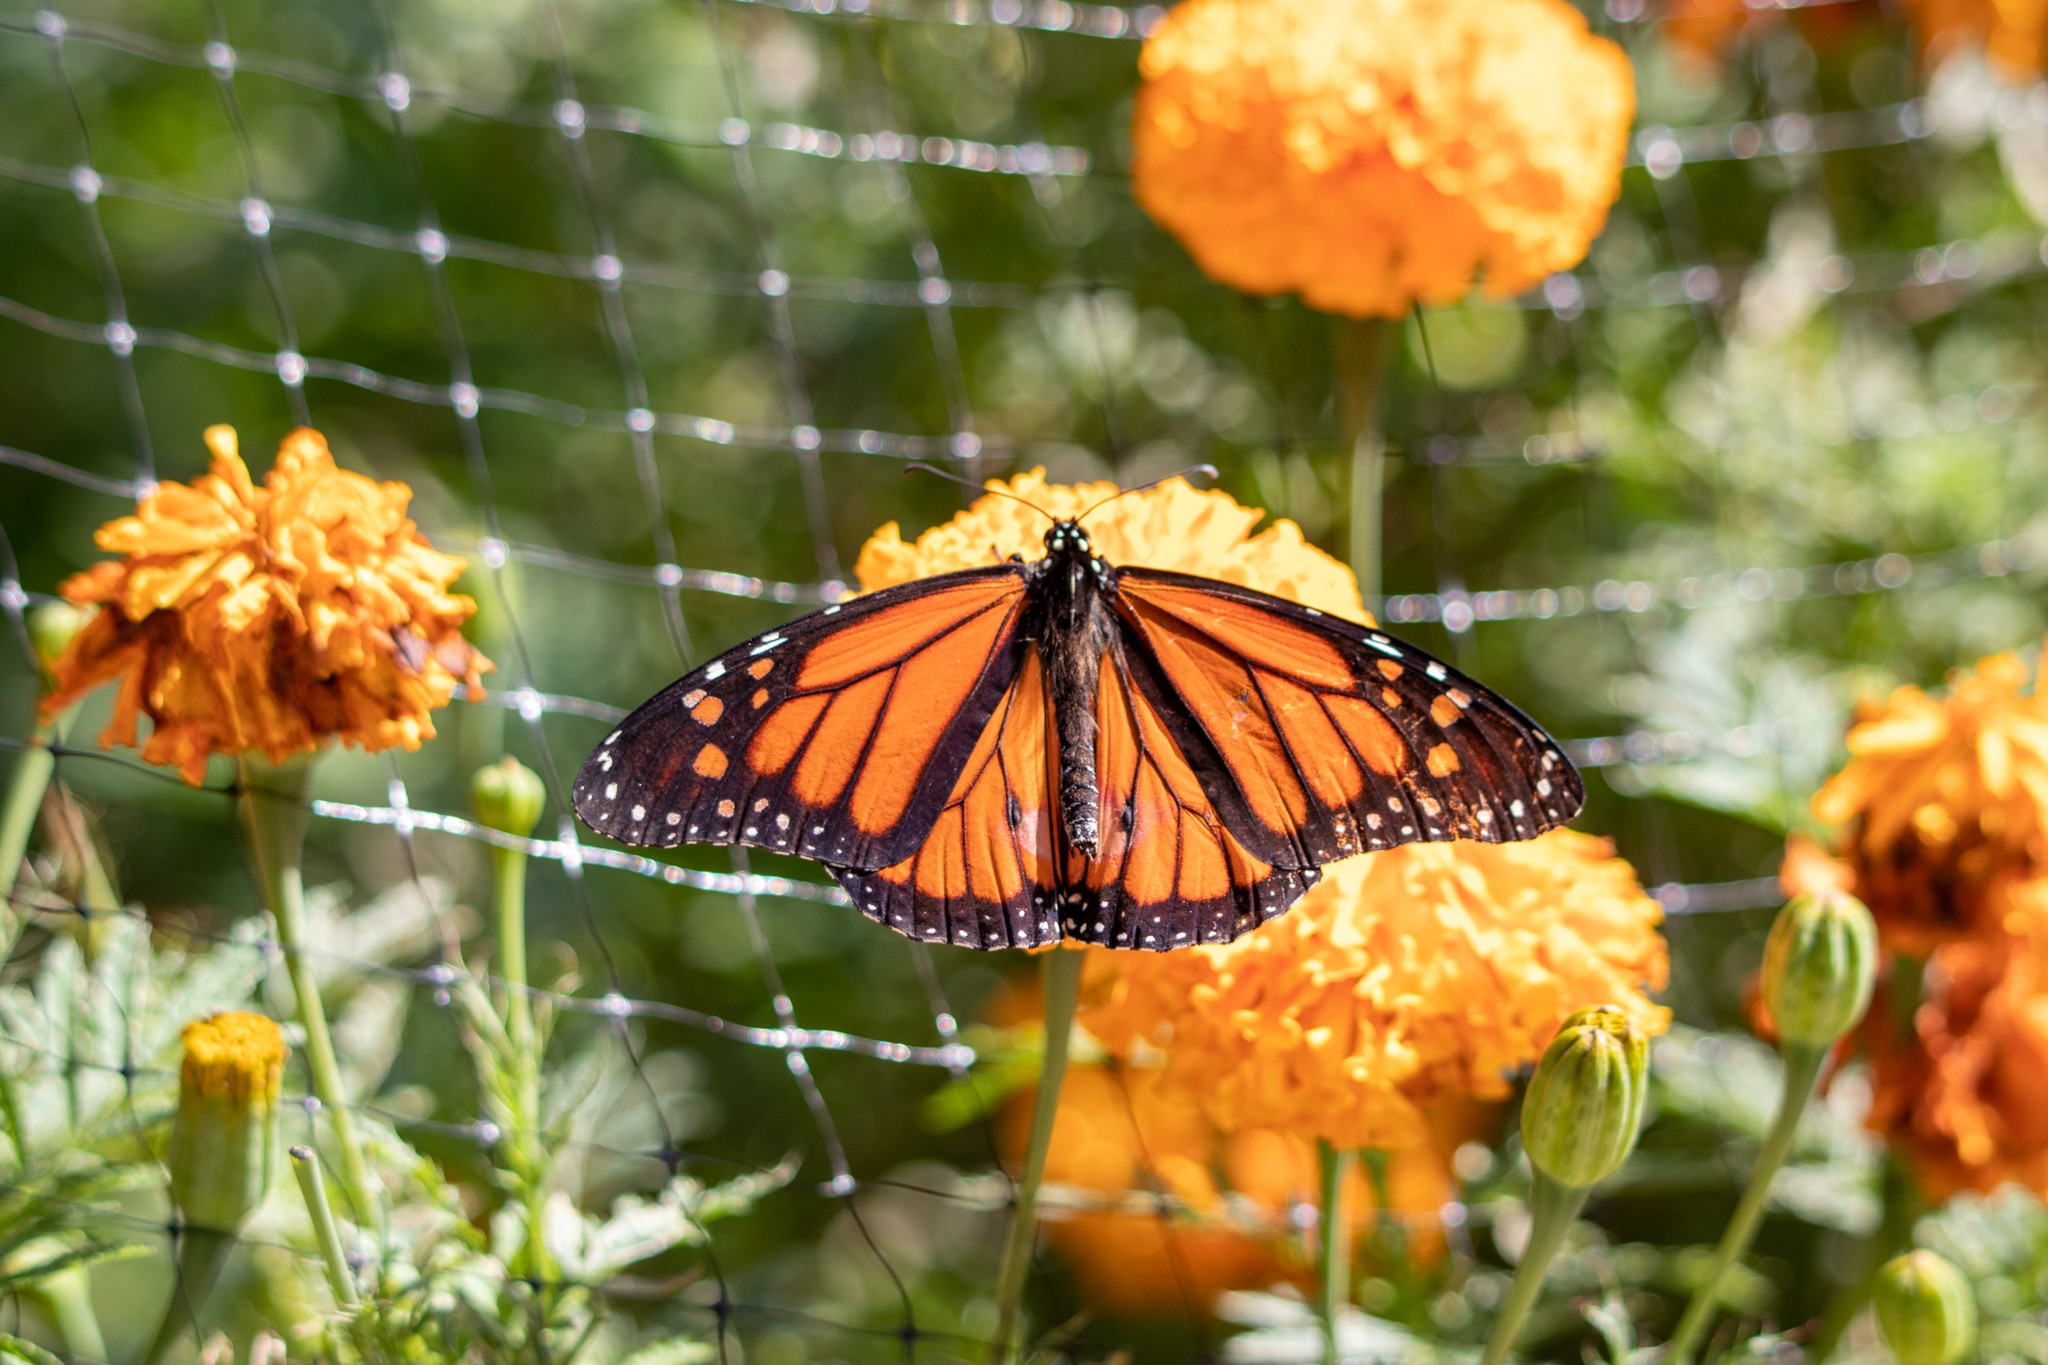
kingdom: Animalia
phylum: Arthropoda
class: Insecta
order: Lepidoptera
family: Nymphalidae
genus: Danaus
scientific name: Danaus plexippus
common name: Monarch
